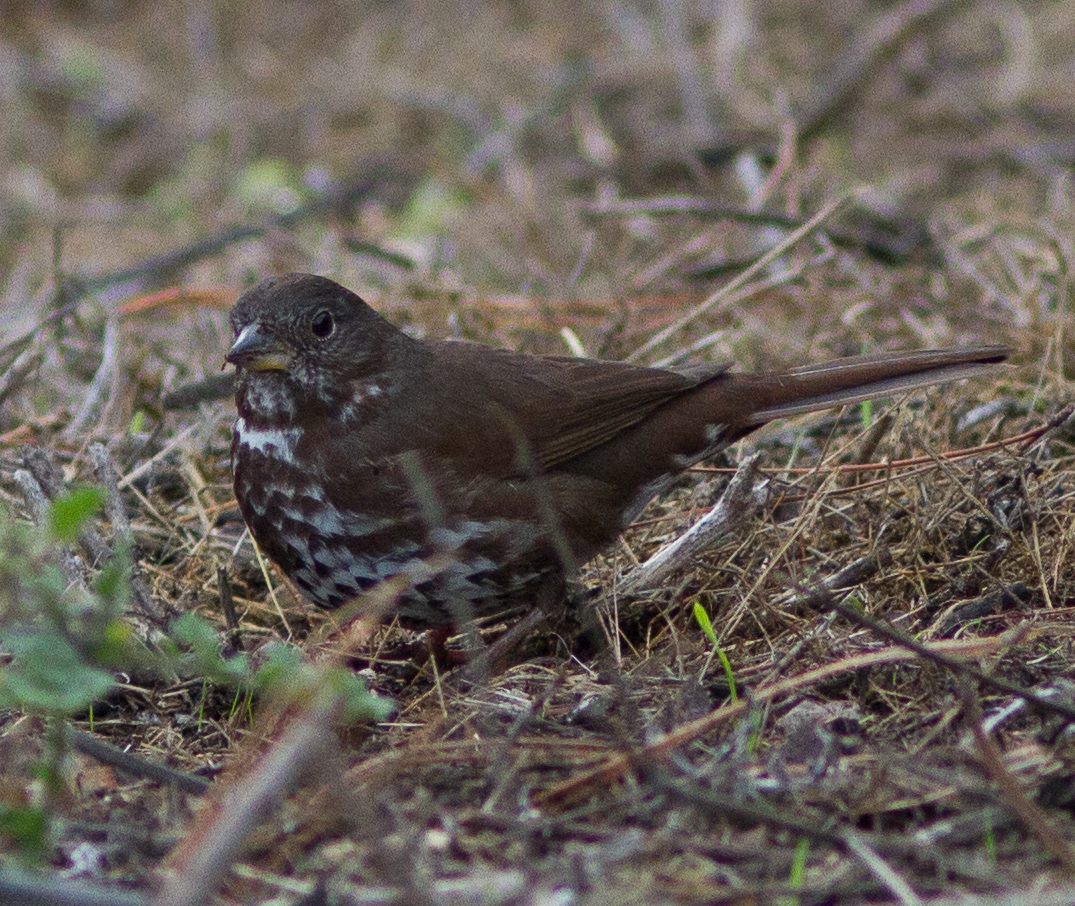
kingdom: Animalia
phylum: Chordata
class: Aves
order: Passeriformes
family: Passerellidae
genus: Passerella
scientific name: Passerella iliaca
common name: Fox sparrow
